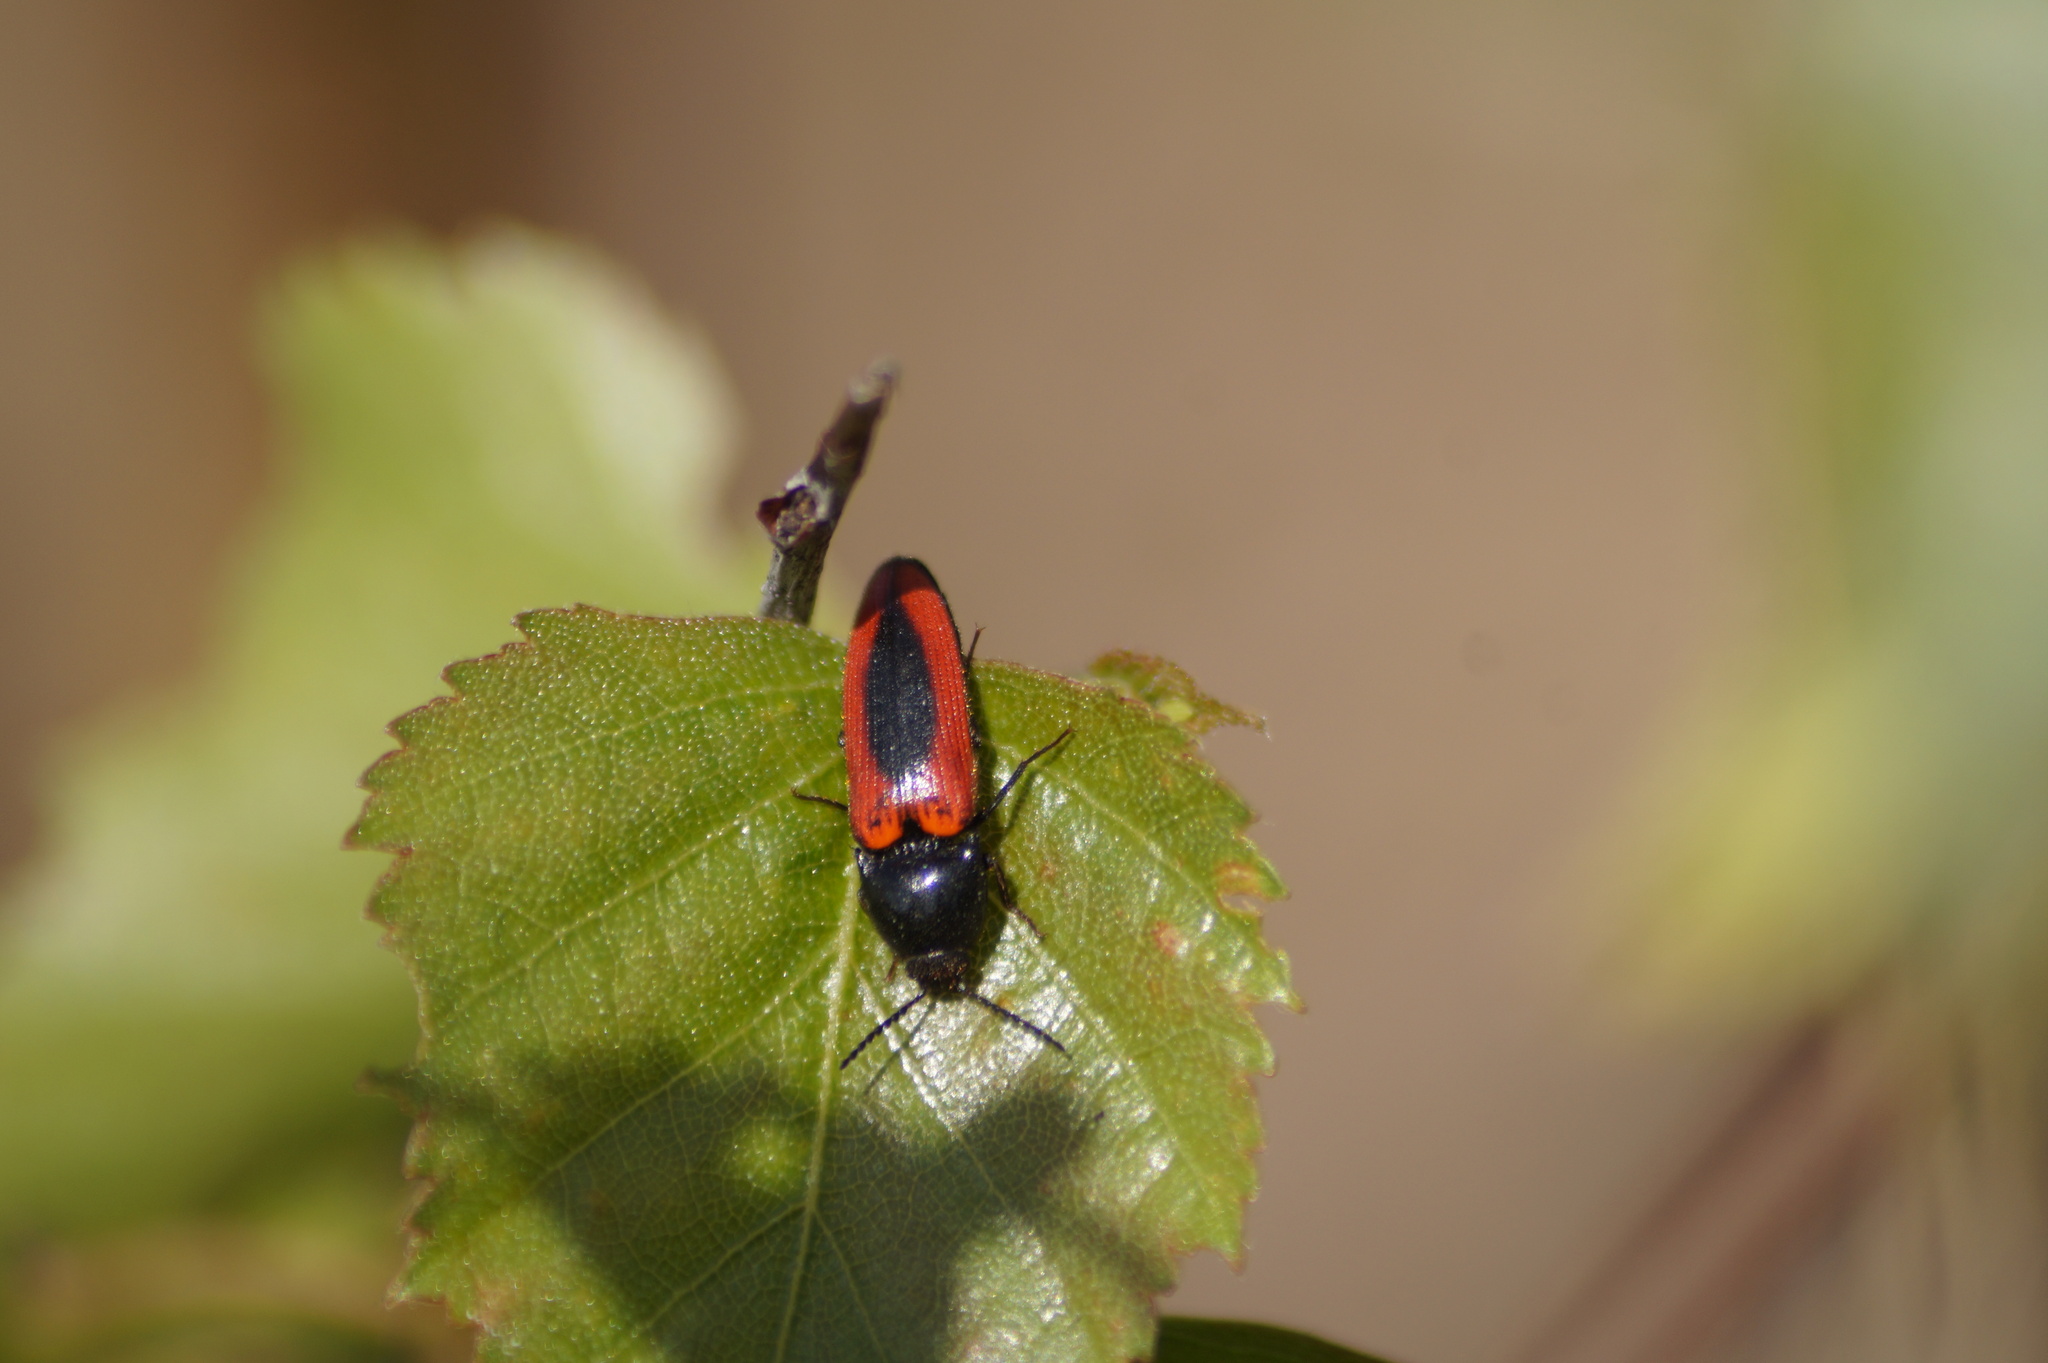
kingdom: Animalia
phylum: Arthropoda
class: Insecta
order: Coleoptera
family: Elateridae
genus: Ampedus
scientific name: Ampedus sanguinolentus
